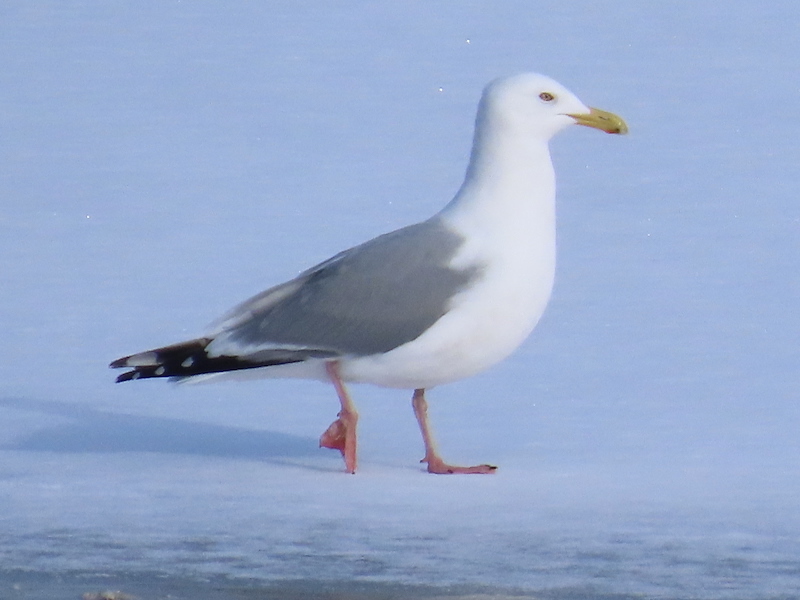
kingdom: Animalia
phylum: Chordata
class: Aves
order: Charadriiformes
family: Laridae
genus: Larus
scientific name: Larus argentatus
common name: Herring gull
